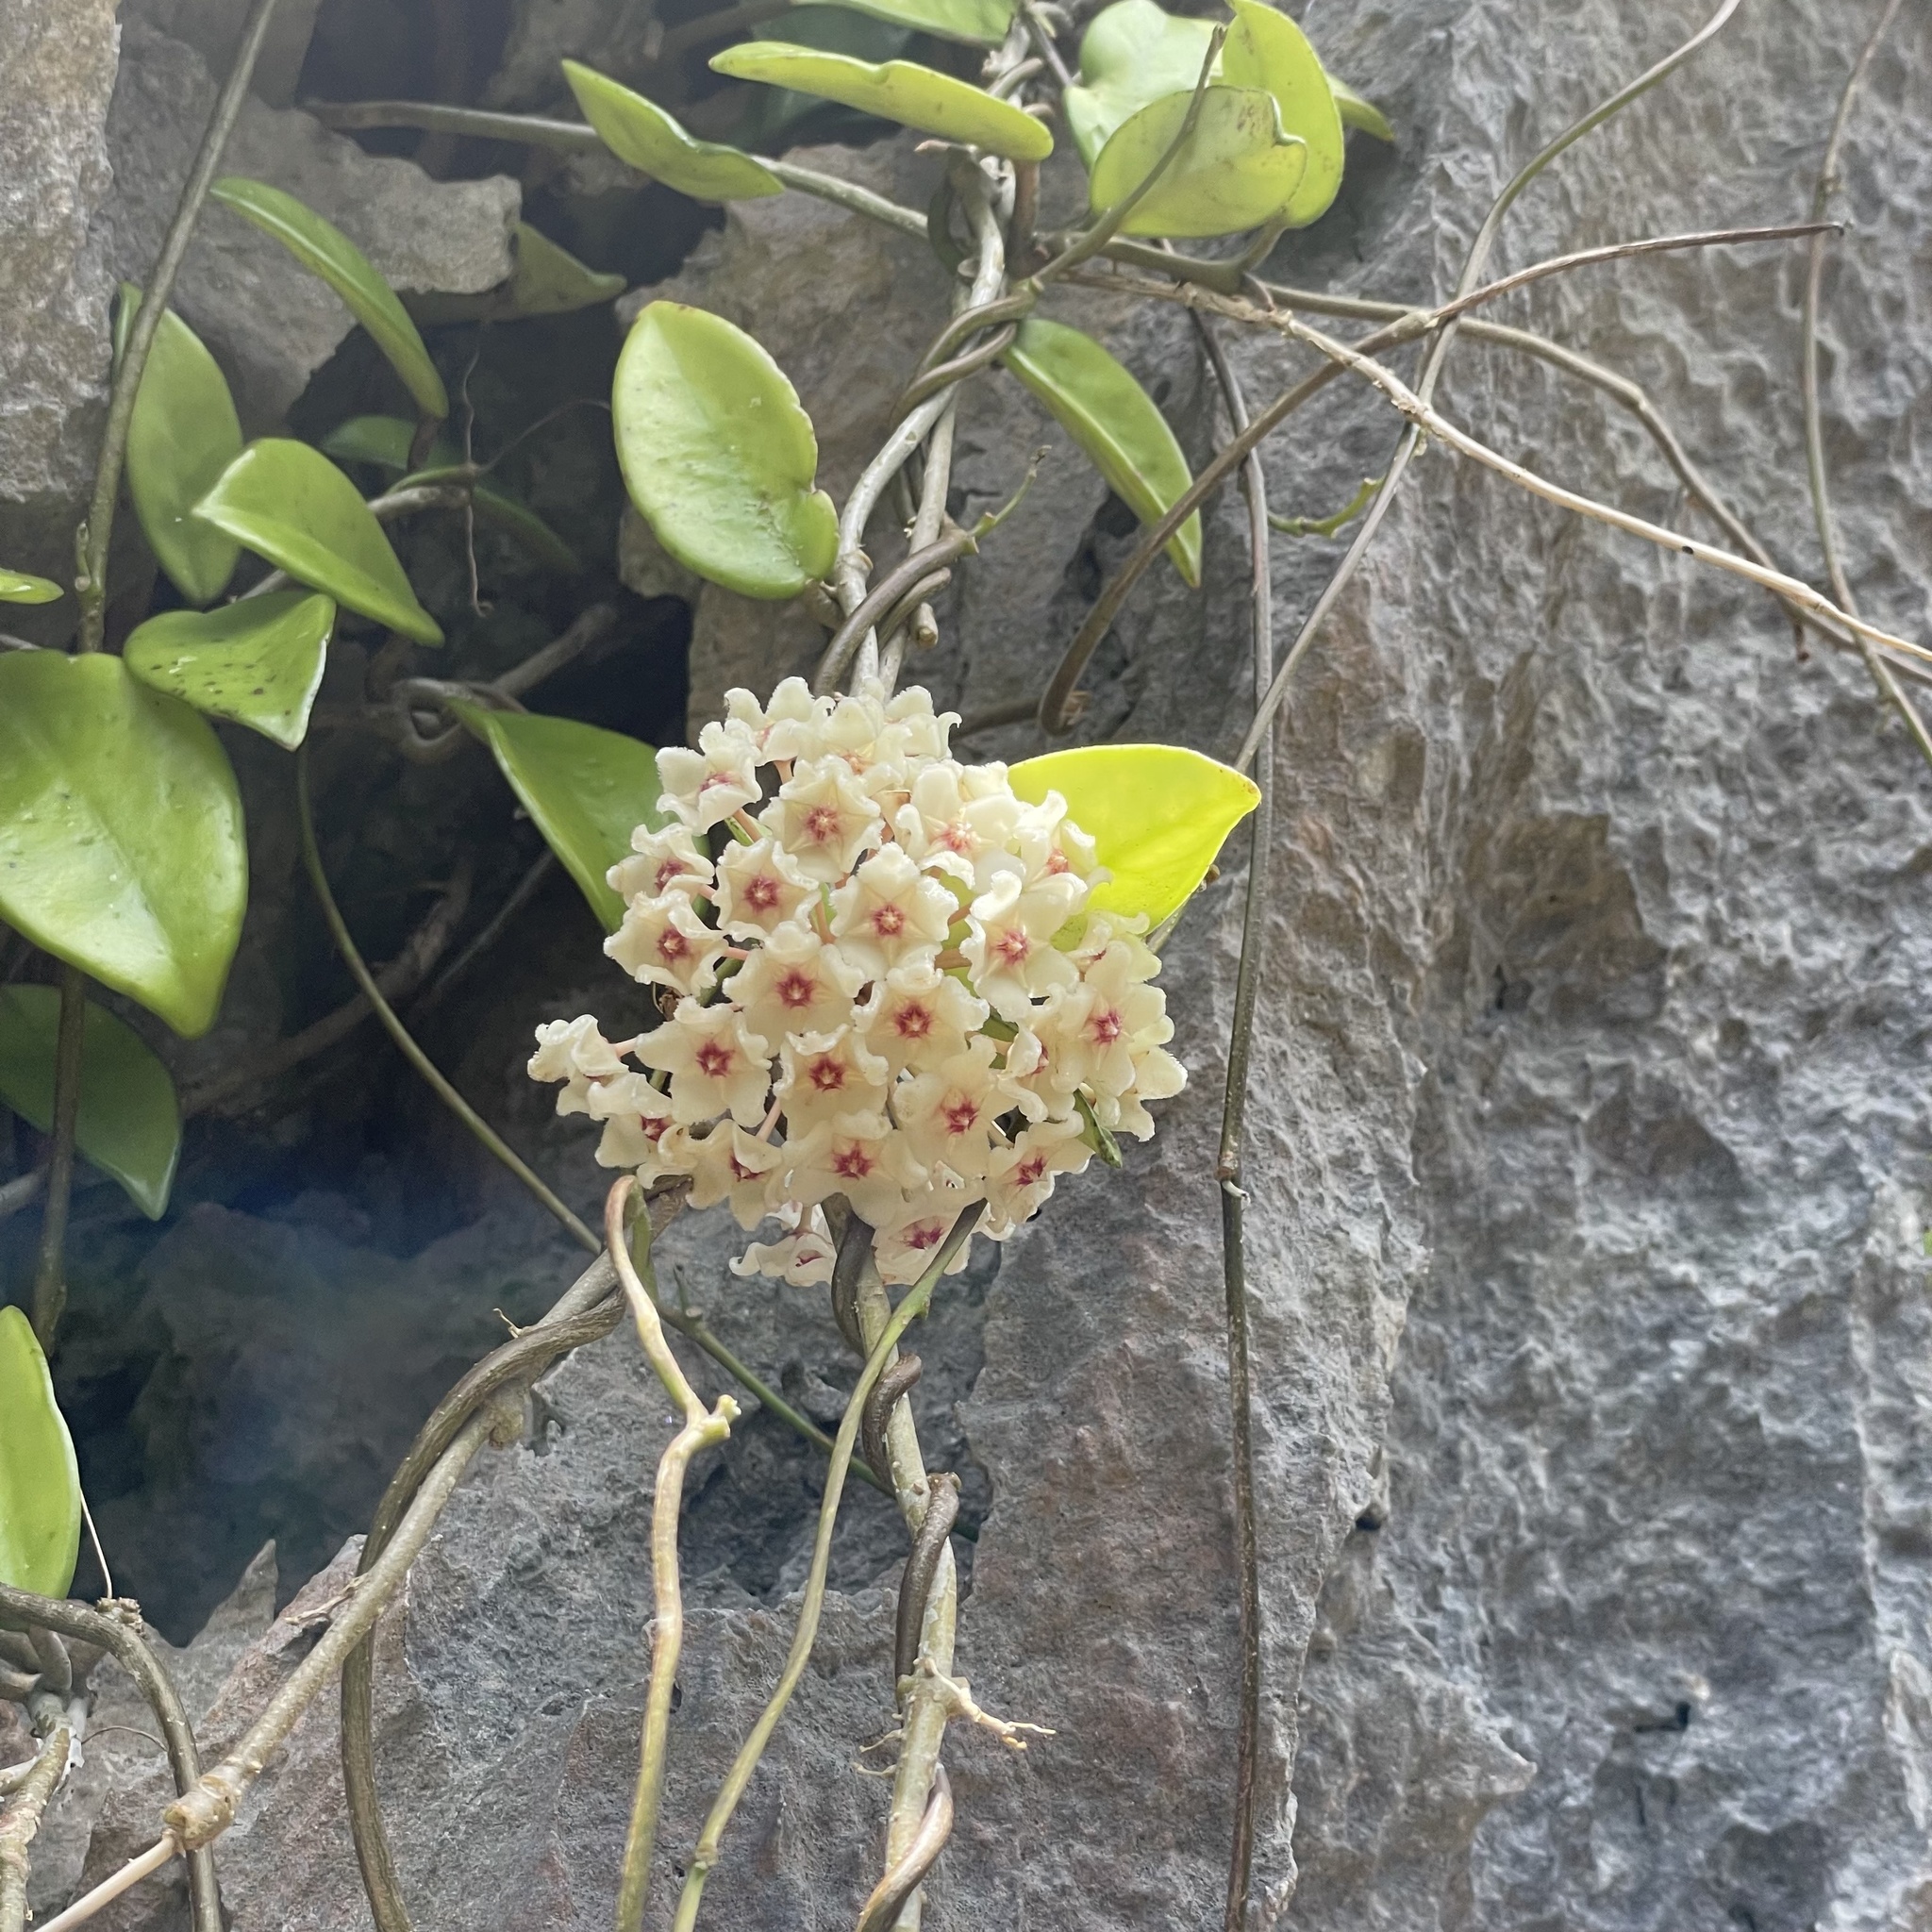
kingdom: Plantae
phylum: Tracheophyta
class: Magnoliopsida
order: Gentianales
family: Apocynaceae
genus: Hoya
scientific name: Hoya carnosa
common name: Honeyplant
